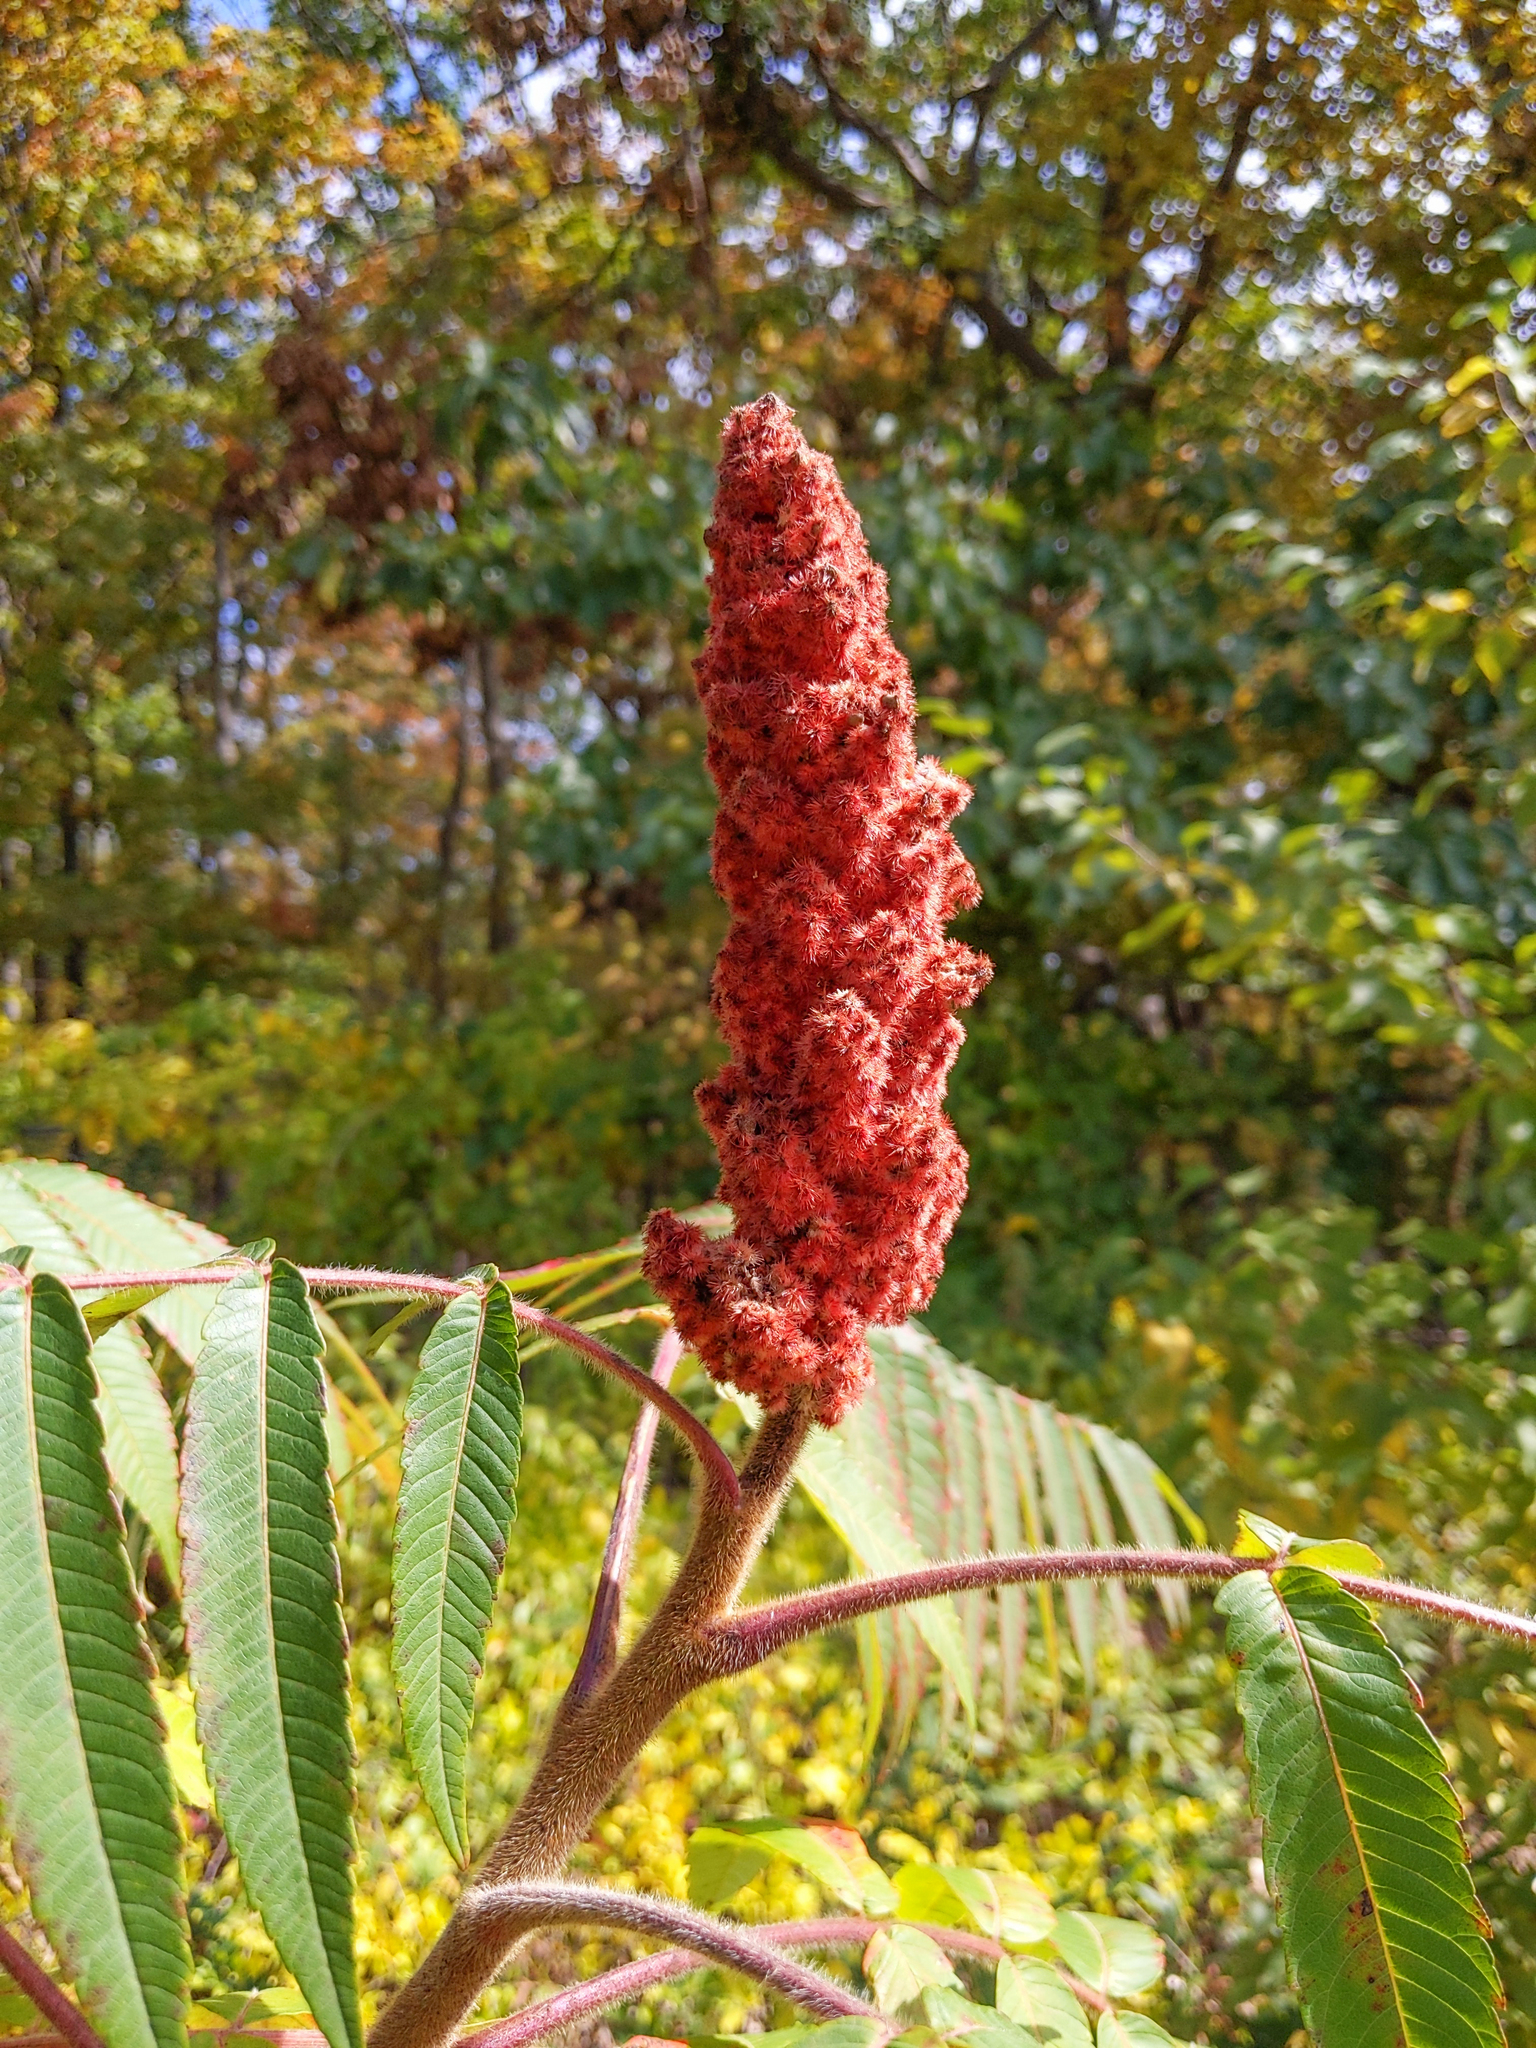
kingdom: Plantae
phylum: Tracheophyta
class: Magnoliopsida
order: Sapindales
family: Anacardiaceae
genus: Rhus
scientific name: Rhus typhina
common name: Staghorn sumac
